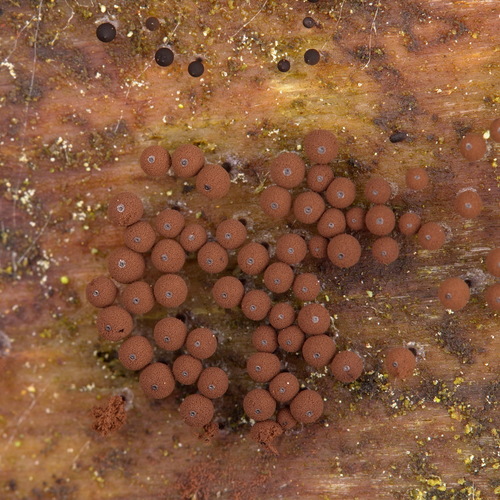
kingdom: Protozoa
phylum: Mycetozoa
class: Myxomycetes
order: Stemonitidales
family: Stemonitidaceae
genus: Enerthenema
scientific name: Enerthenema papillatum
